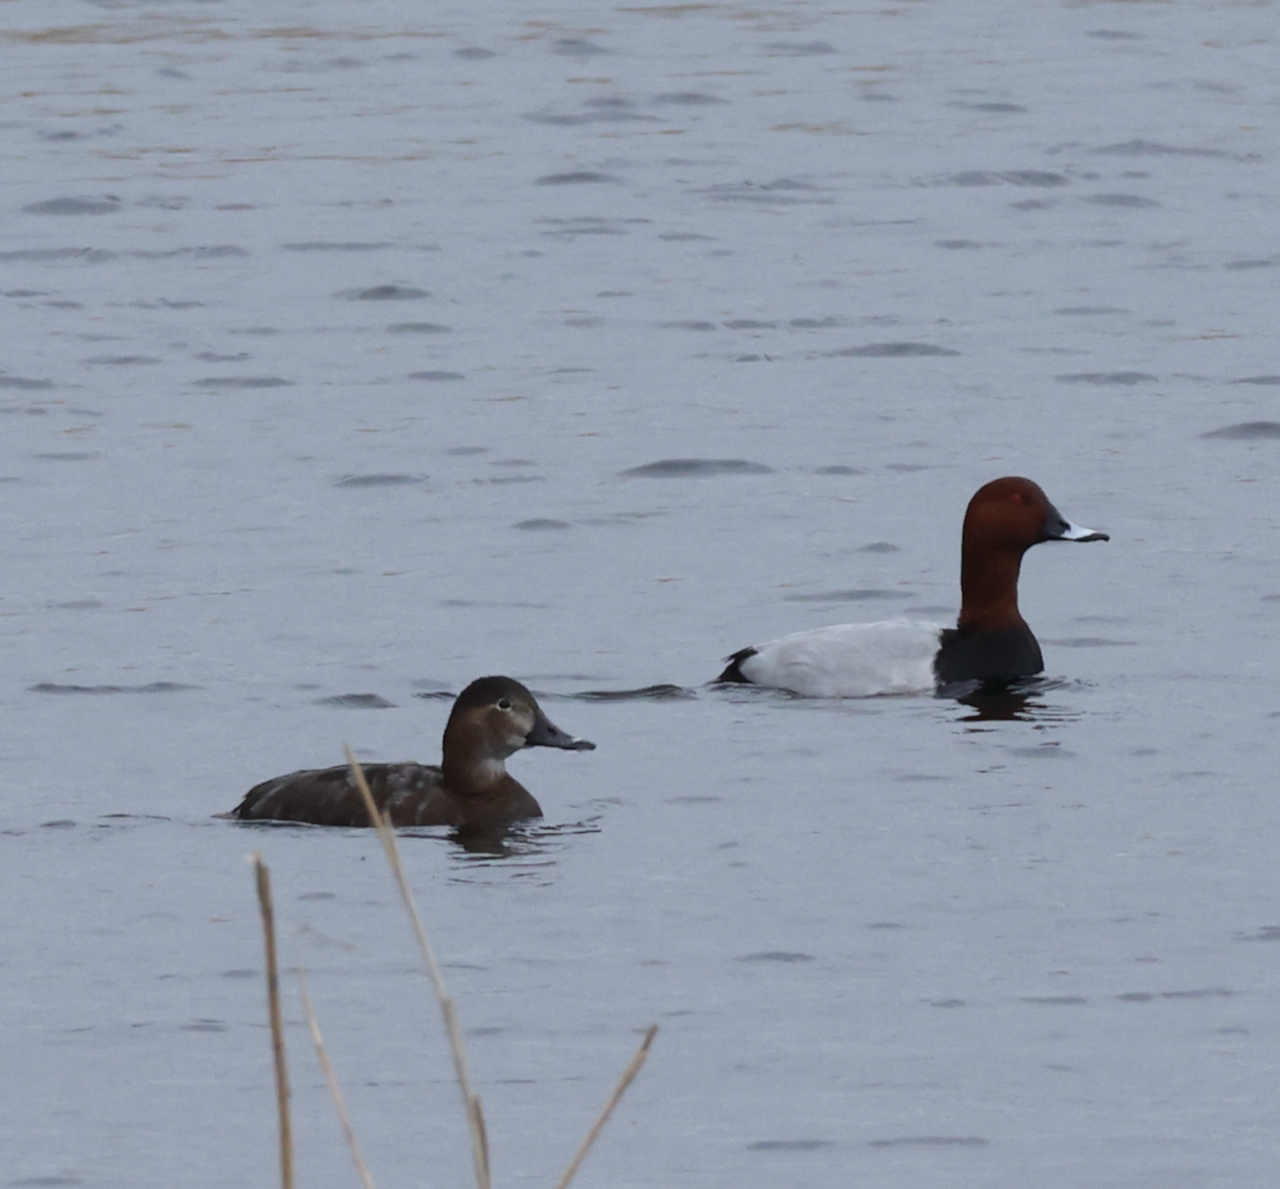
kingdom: Animalia
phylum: Chordata
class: Aves
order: Anseriformes
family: Anatidae
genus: Aythya
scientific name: Aythya ferina
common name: Common pochard
